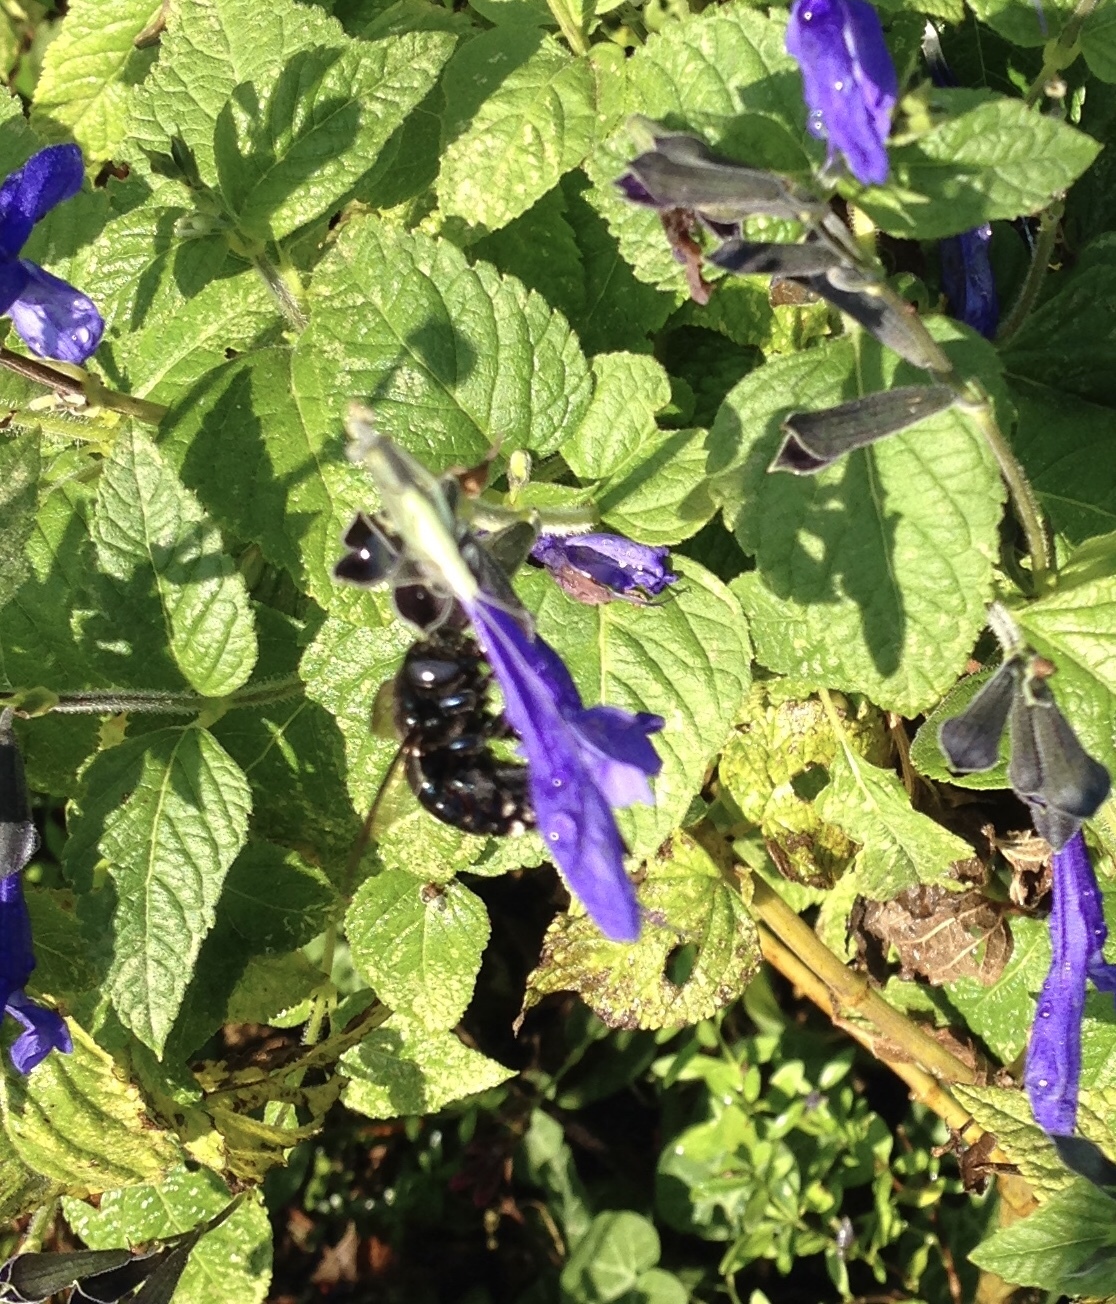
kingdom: Animalia
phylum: Arthropoda
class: Insecta
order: Hymenoptera
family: Apidae
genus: Xylocopa
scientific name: Xylocopa micans
